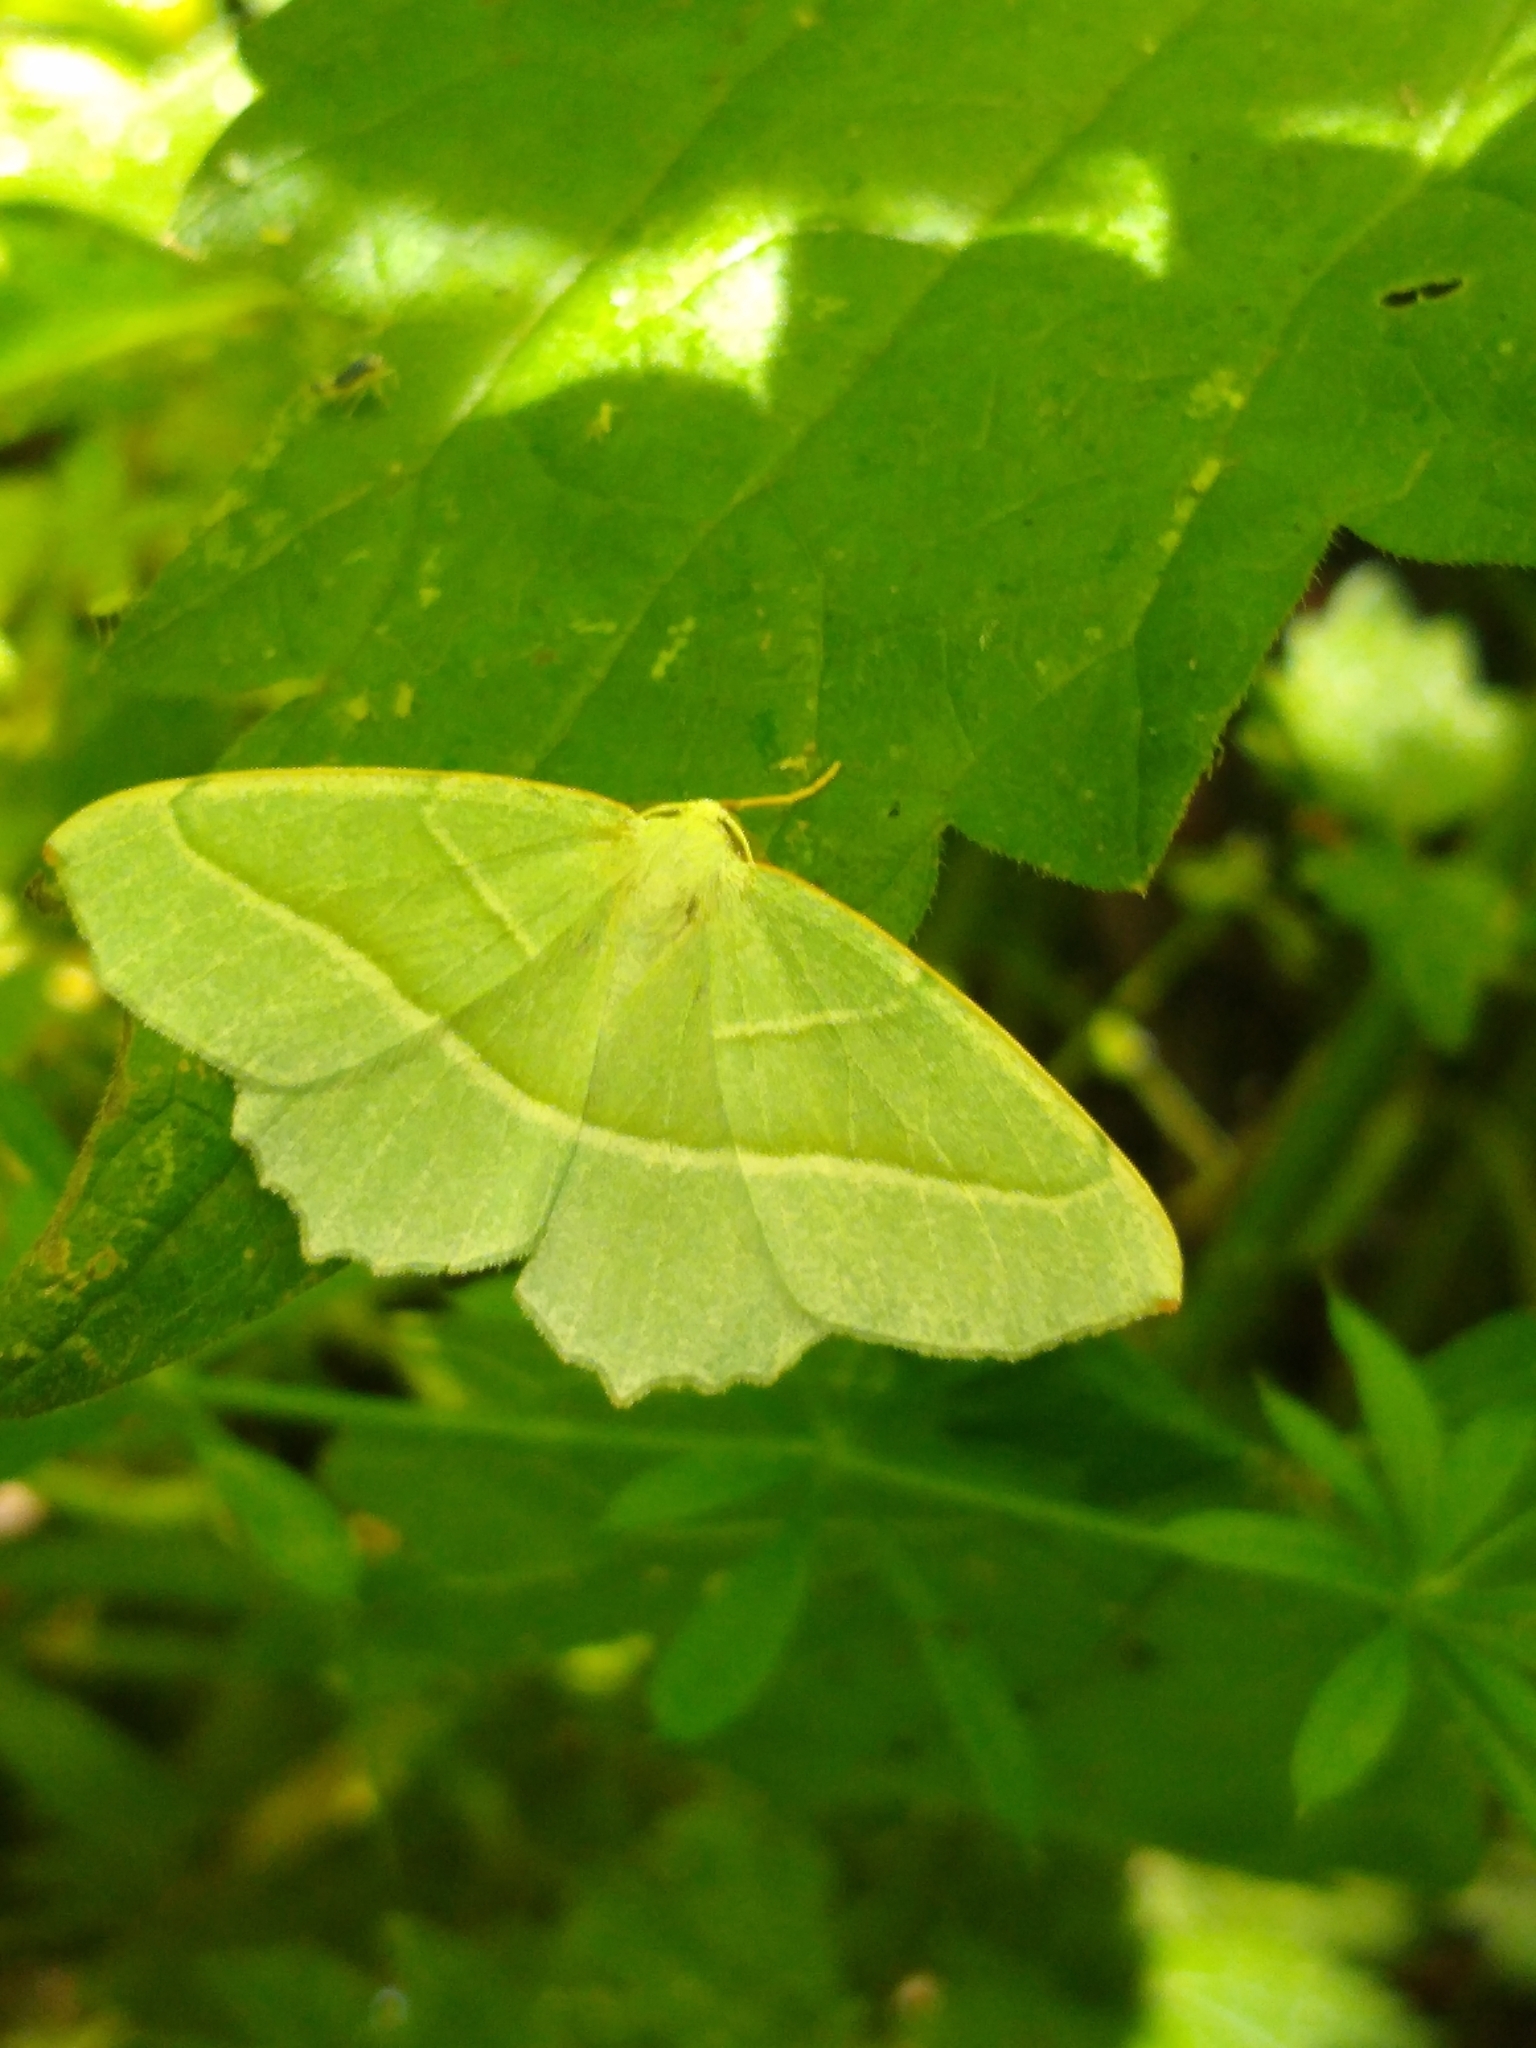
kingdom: Animalia
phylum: Arthropoda
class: Insecta
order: Lepidoptera
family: Geometridae
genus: Campaea
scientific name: Campaea margaritaria
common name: Light emerald
